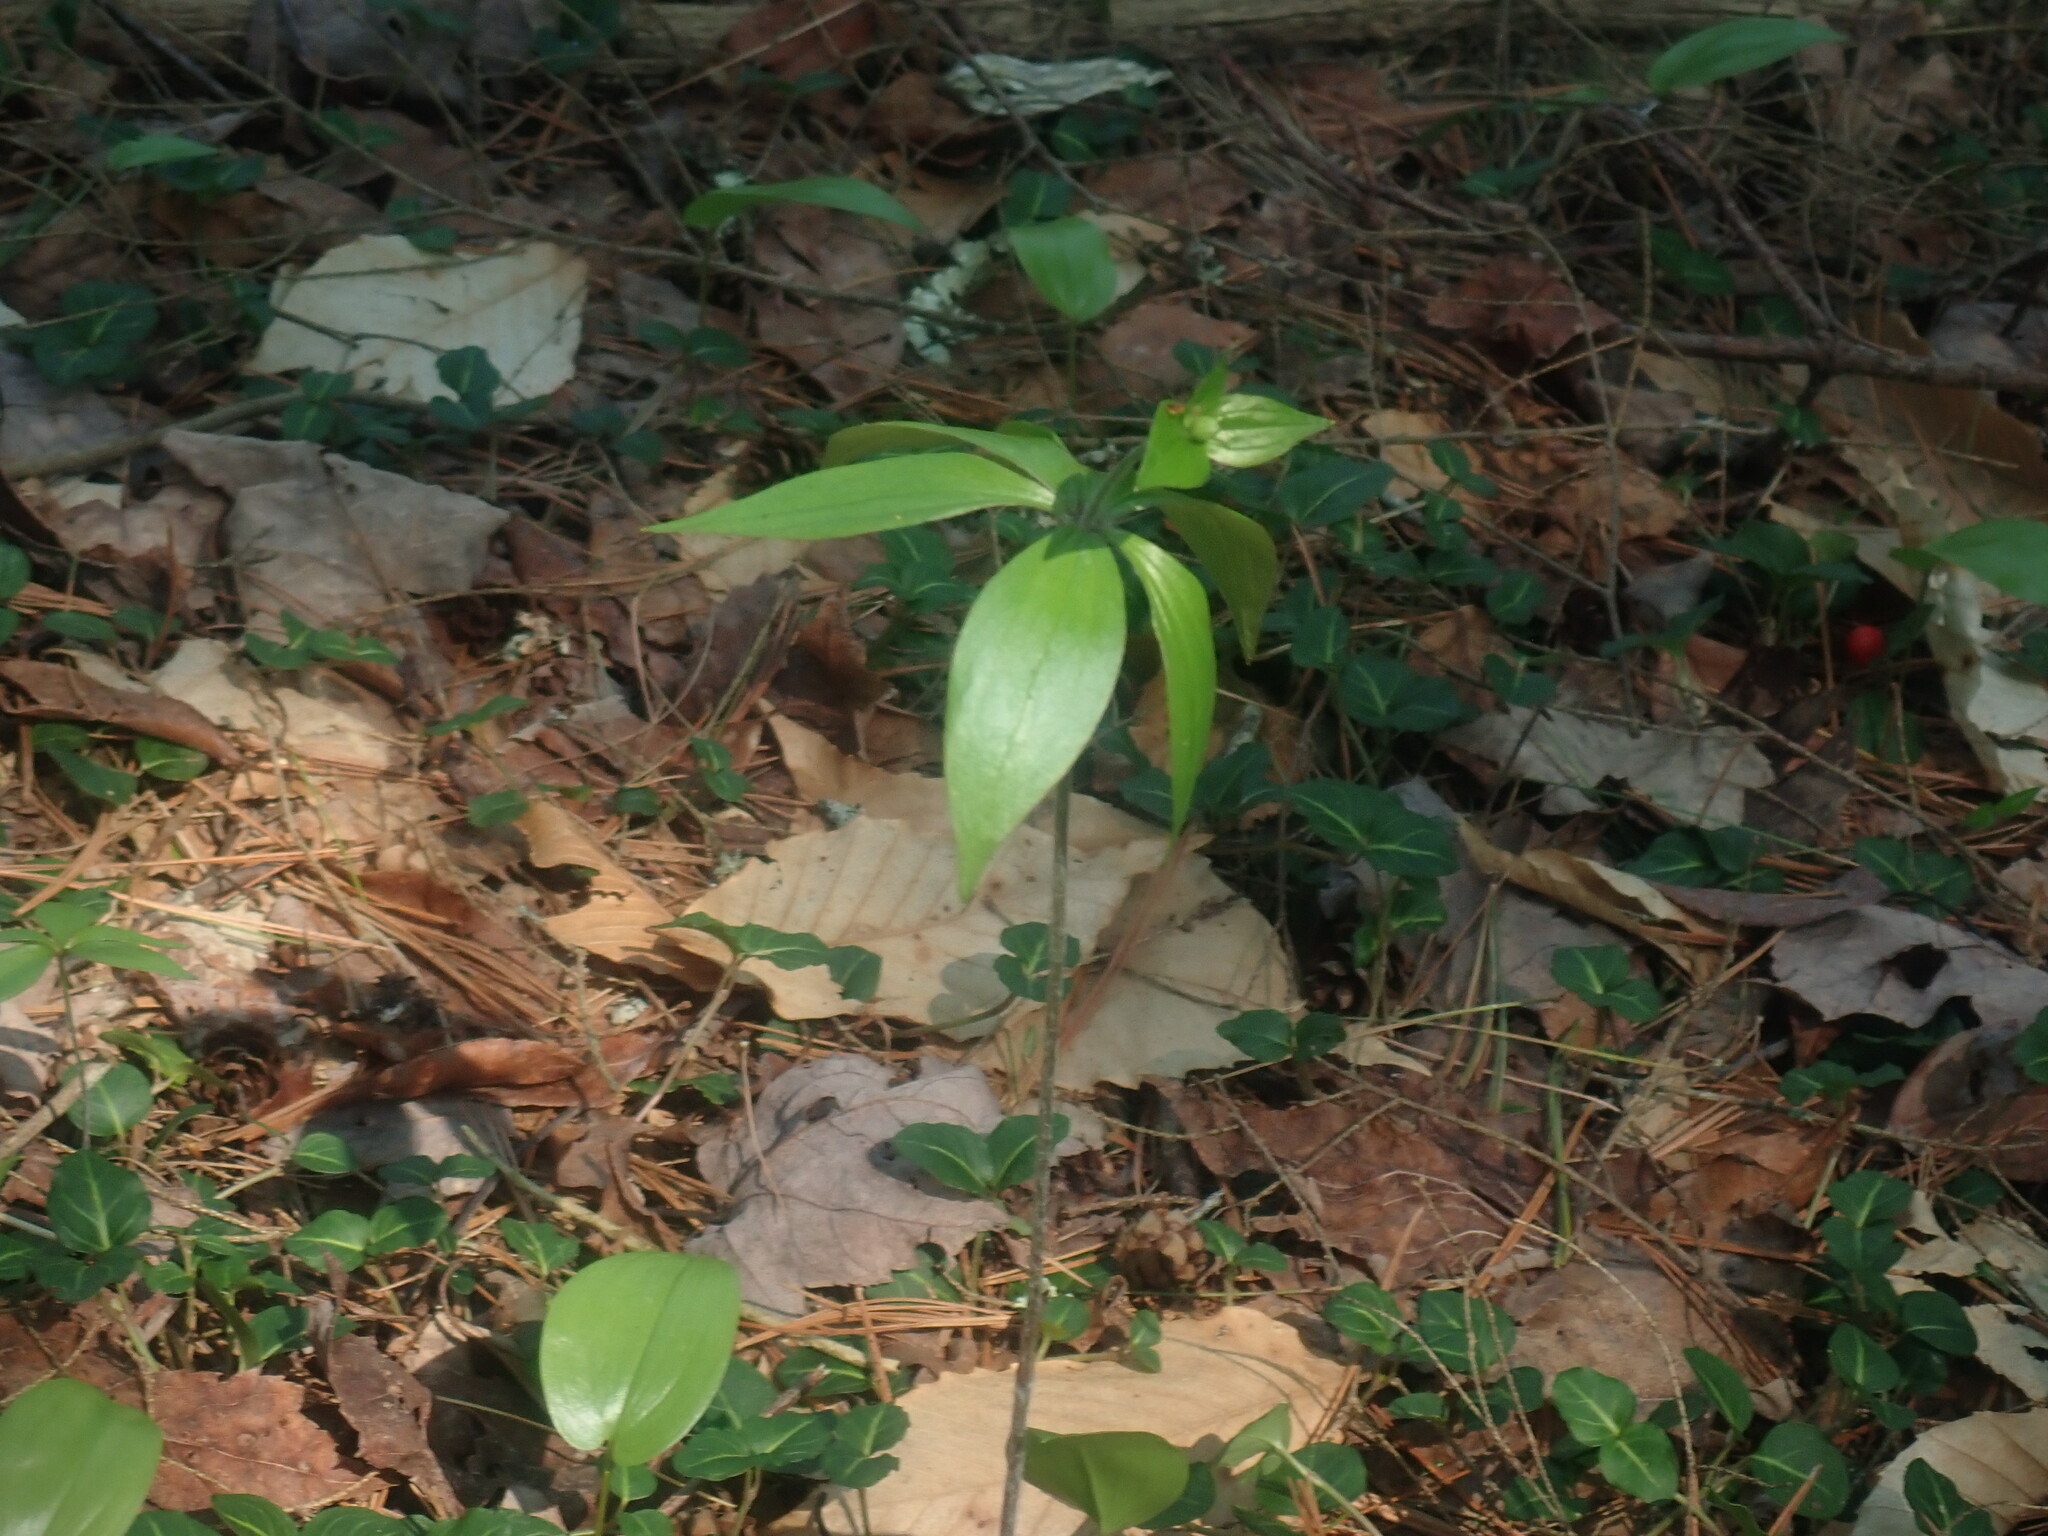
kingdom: Plantae
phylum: Tracheophyta
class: Liliopsida
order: Liliales
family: Liliaceae
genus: Medeola
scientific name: Medeola virginiana
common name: Indian cucumber-root
